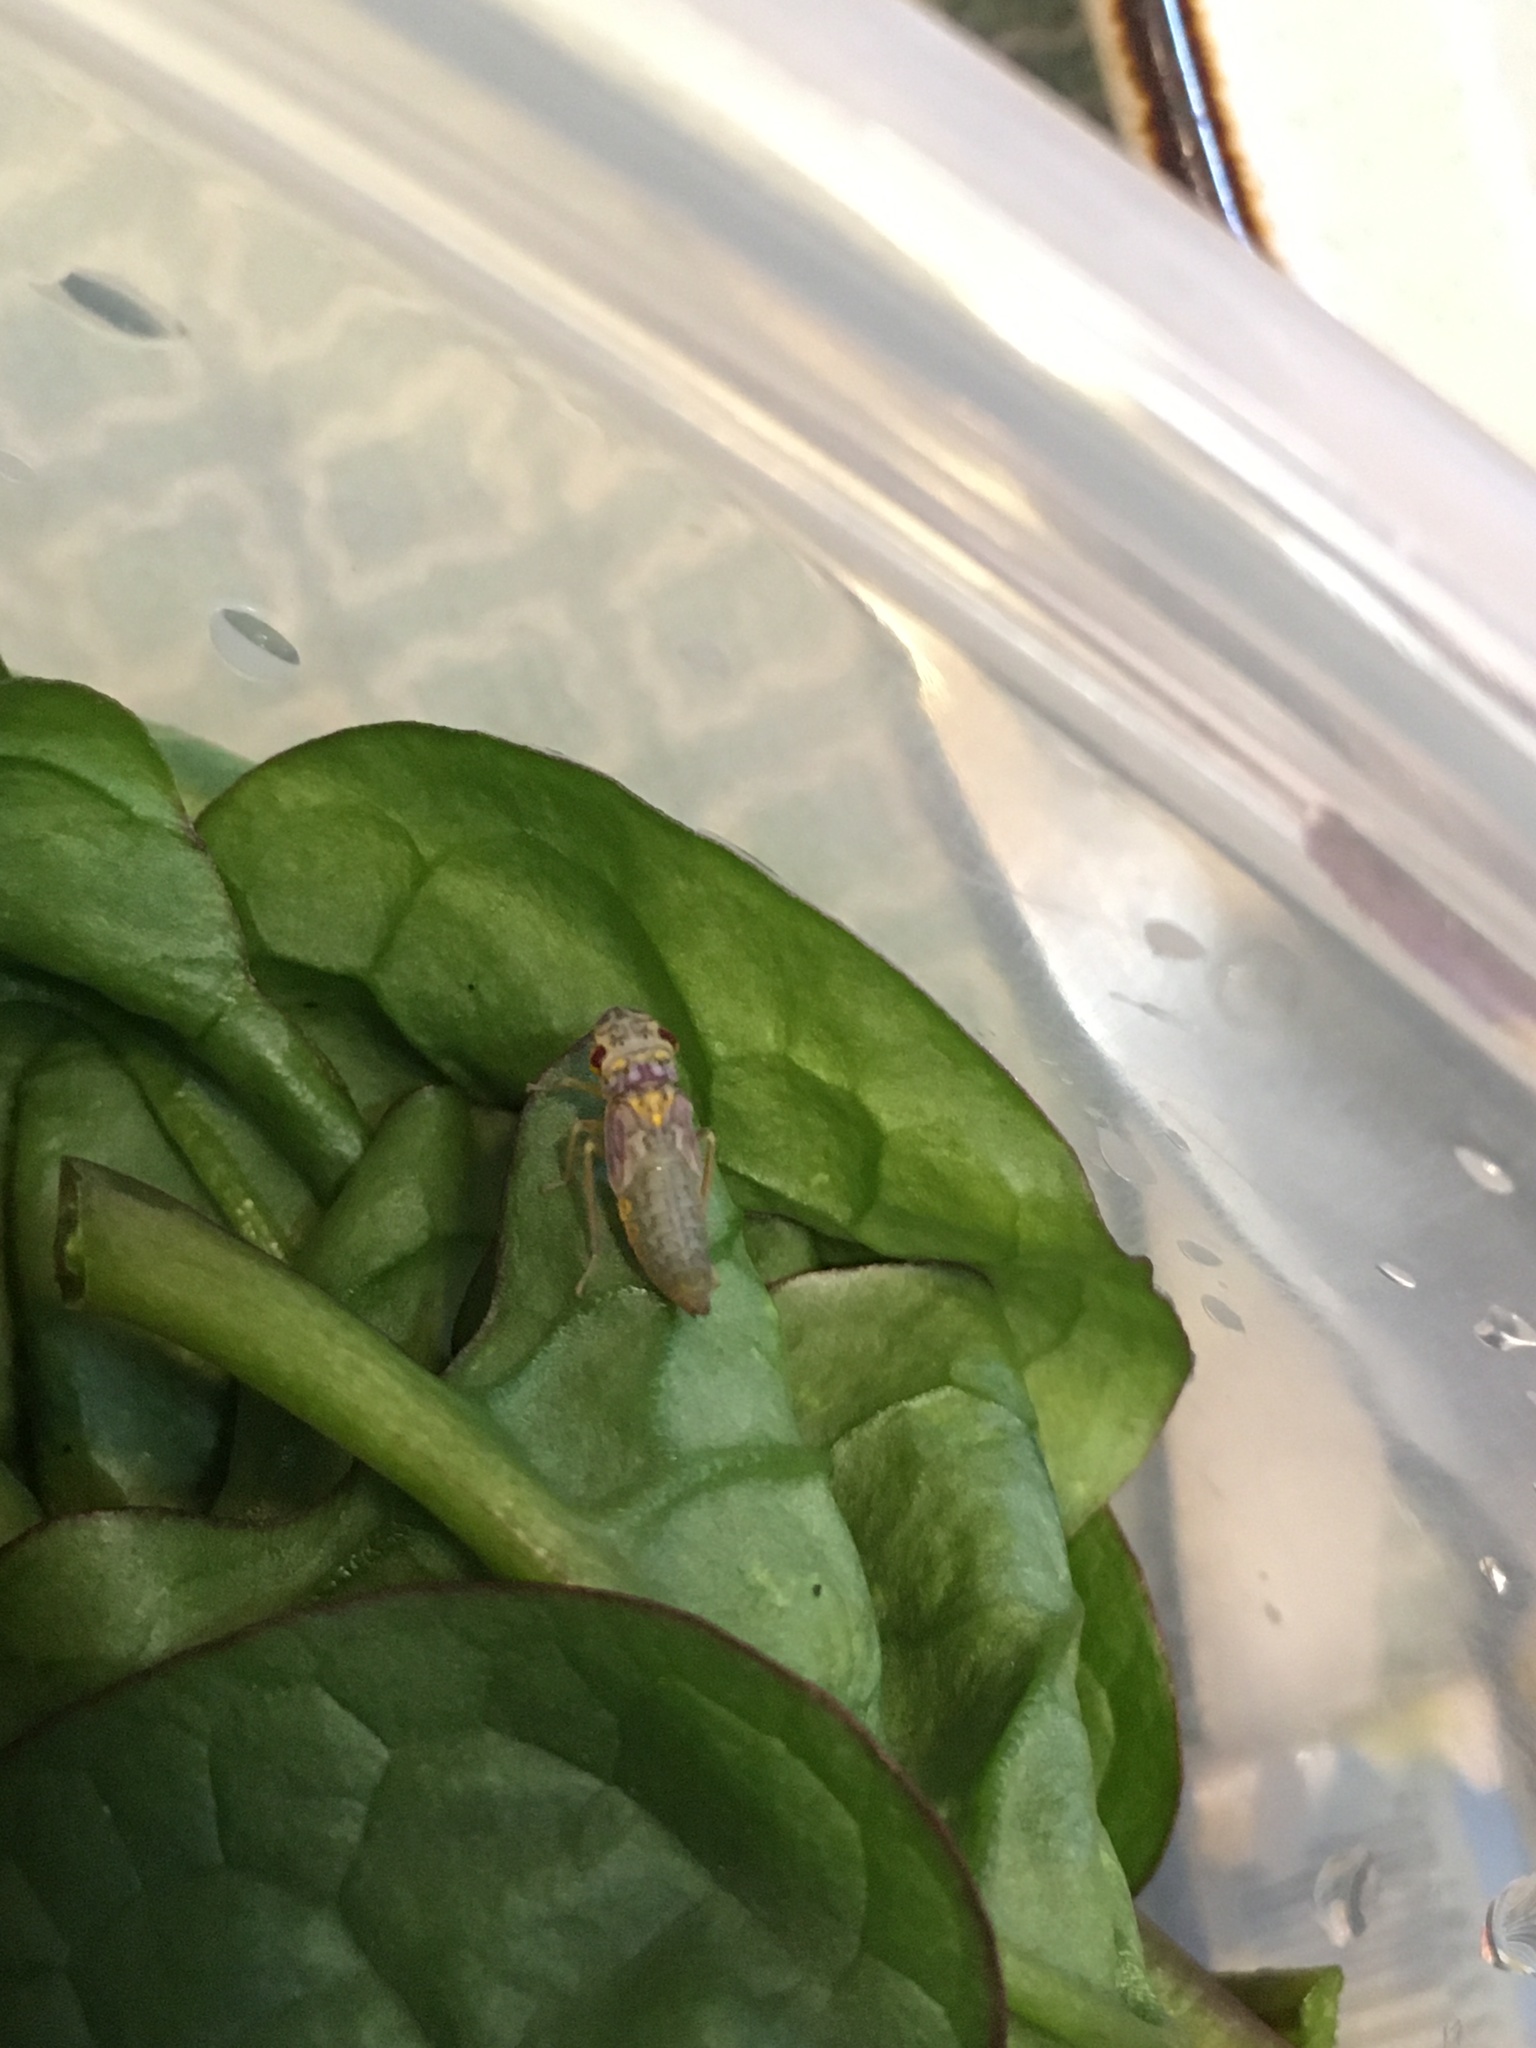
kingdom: Animalia
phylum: Arthropoda
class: Insecta
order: Hemiptera
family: Cicadellidae
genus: Oncometopia
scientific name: Oncometopia orbona
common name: Broad-headed sharpshooter
